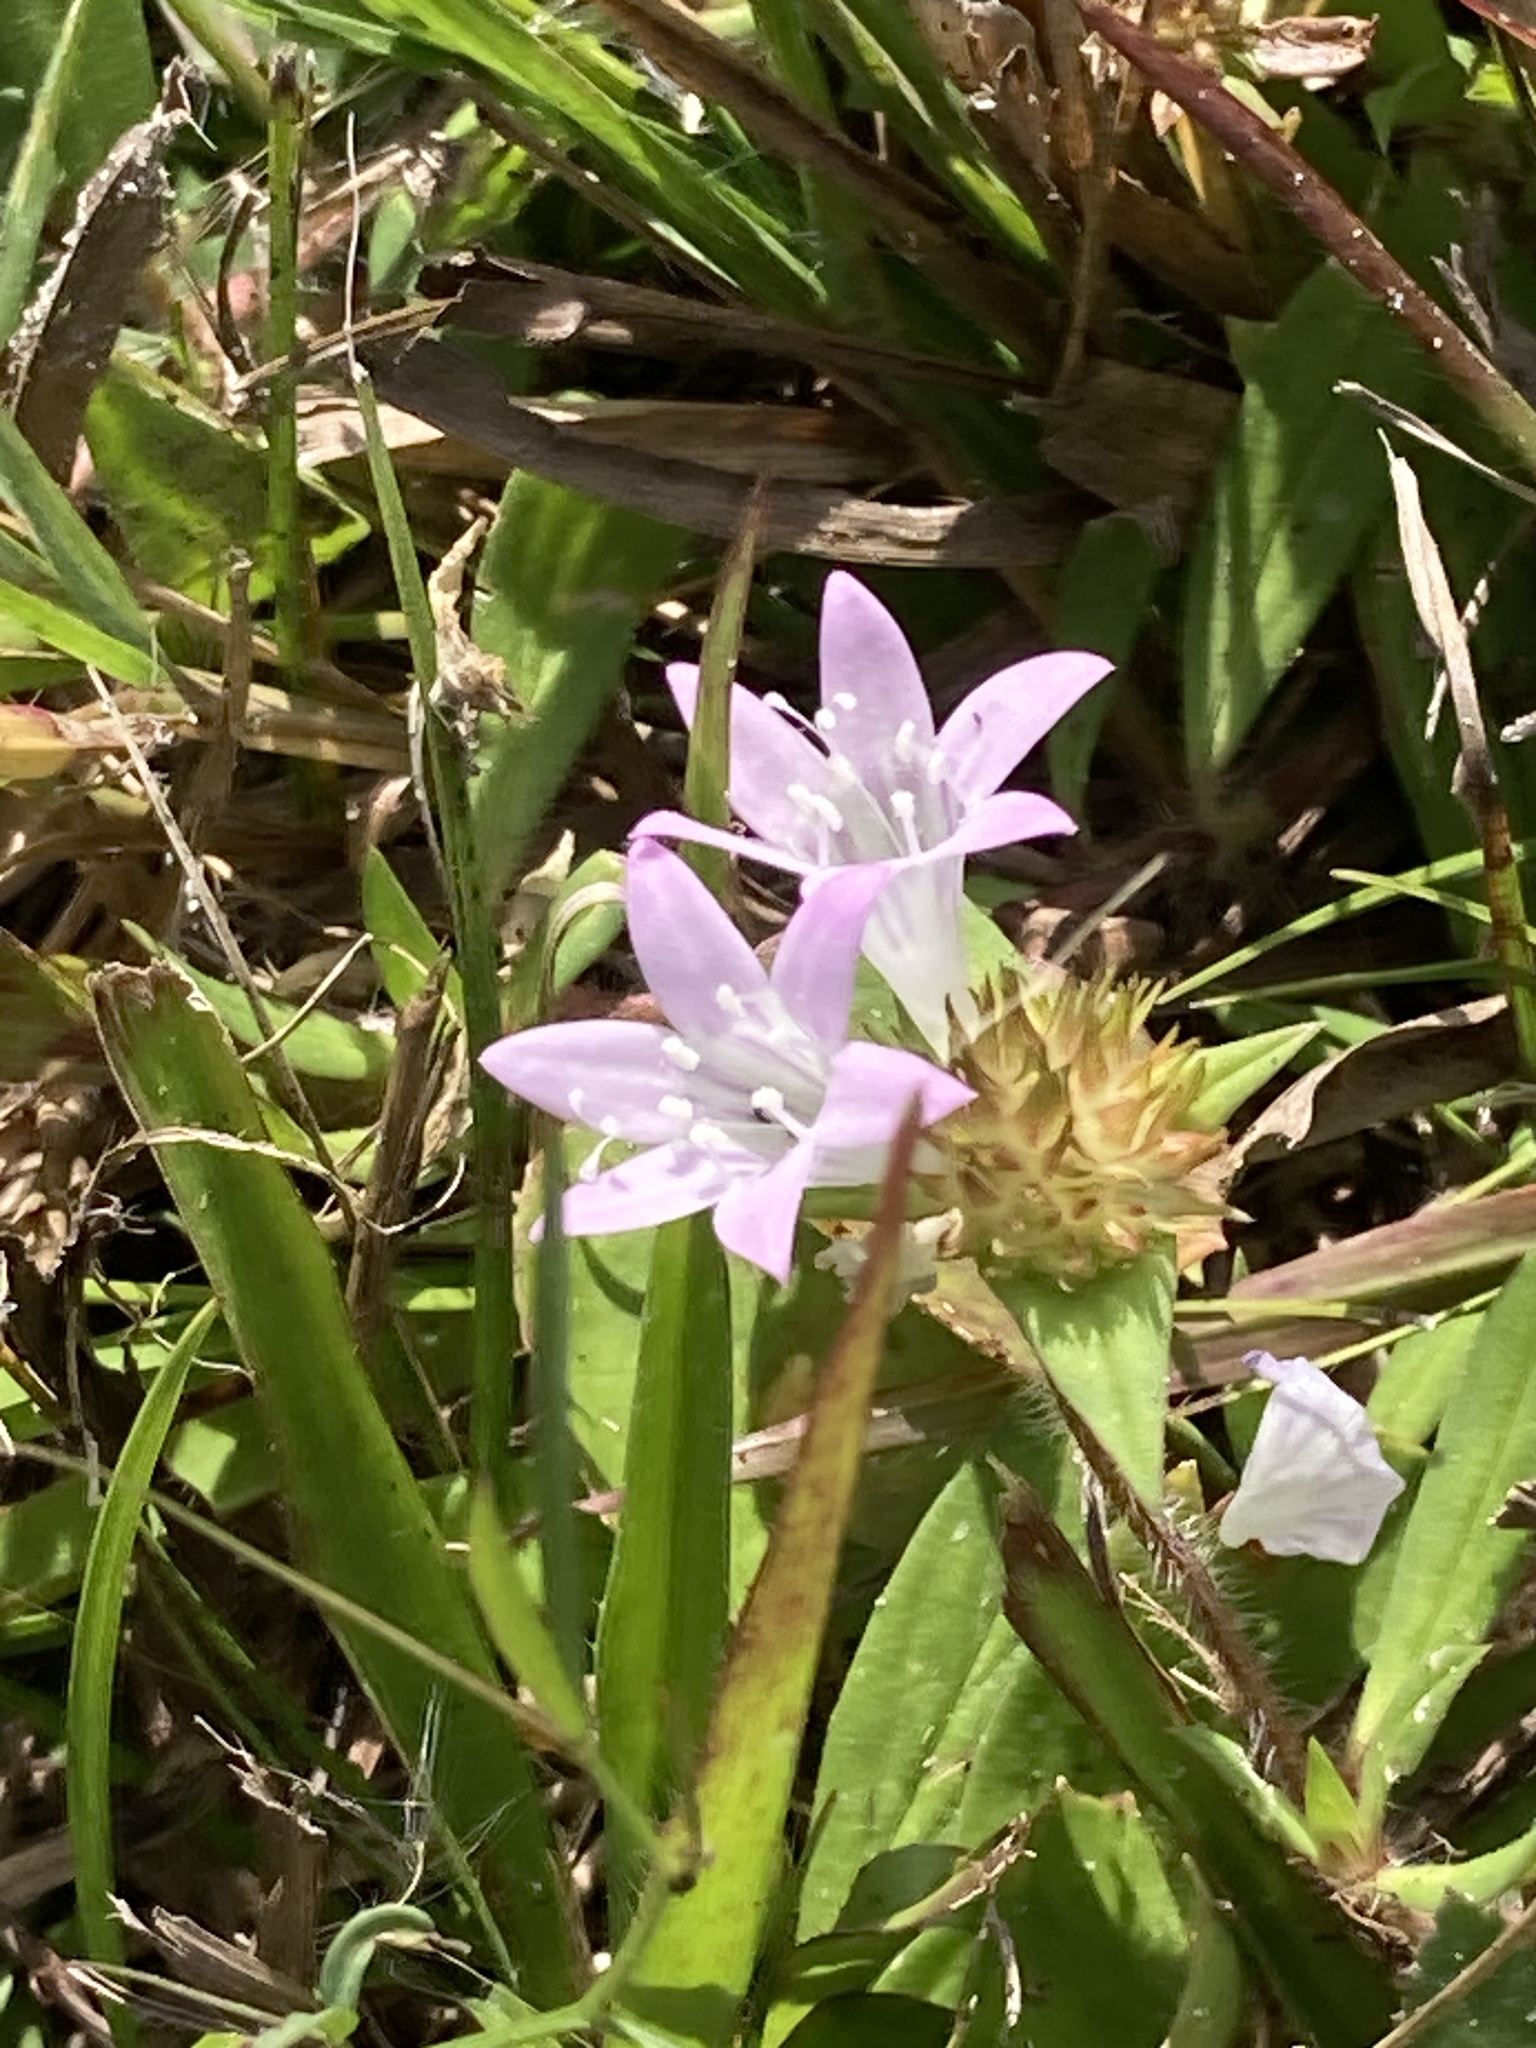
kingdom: Plantae
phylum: Tracheophyta
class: Magnoliopsida
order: Gentianales
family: Rubiaceae
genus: Richardia
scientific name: Richardia grandiflora
